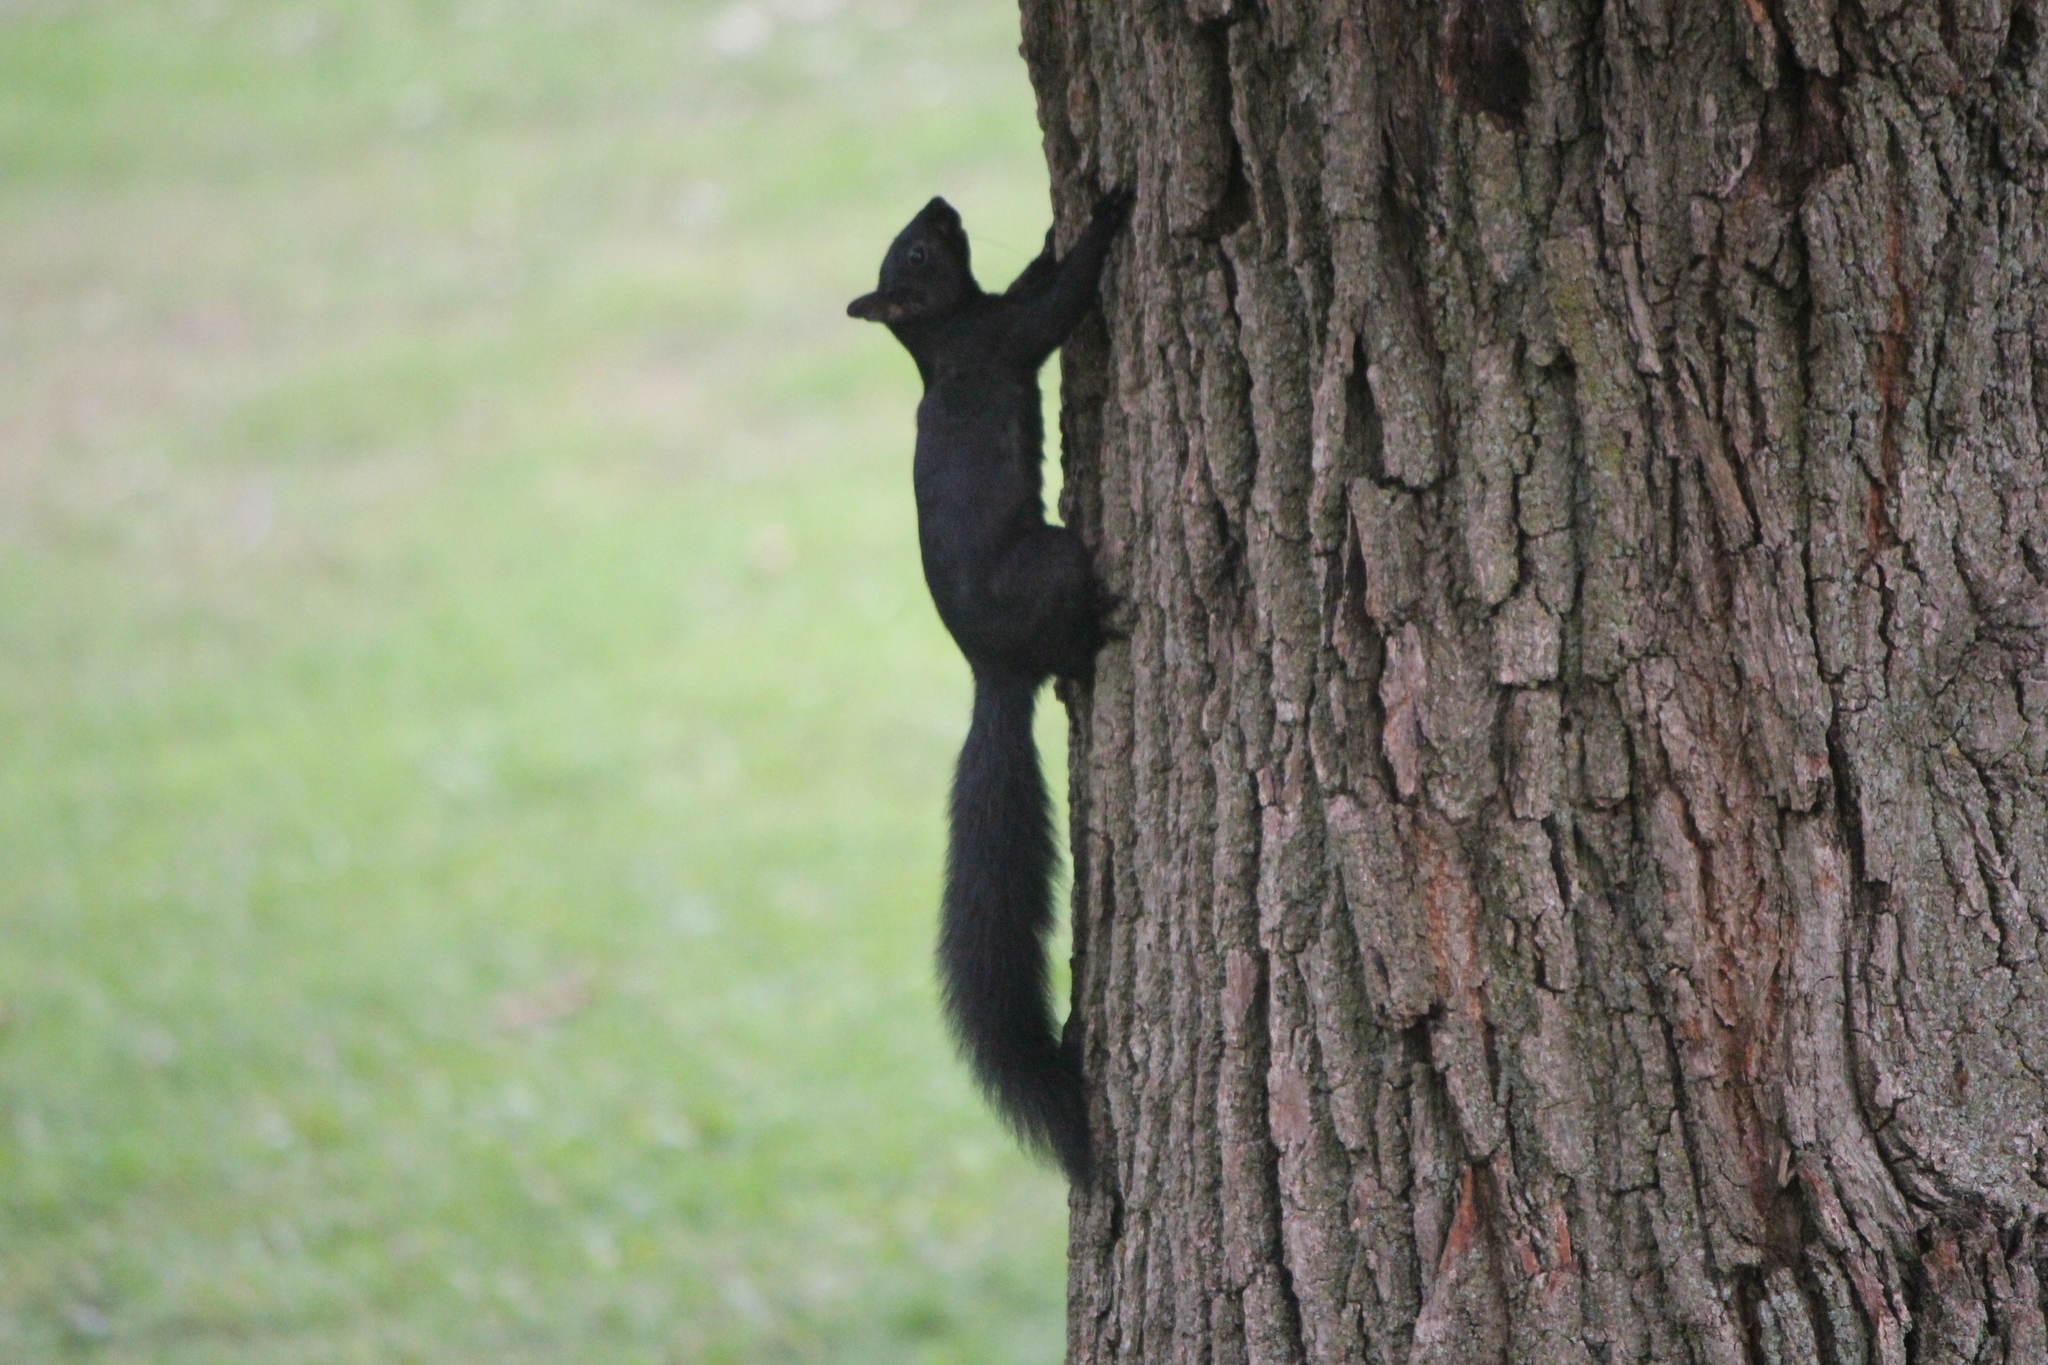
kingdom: Animalia
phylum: Chordata
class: Mammalia
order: Rodentia
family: Sciuridae
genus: Sciurus
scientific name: Sciurus carolinensis
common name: Eastern gray squirrel
